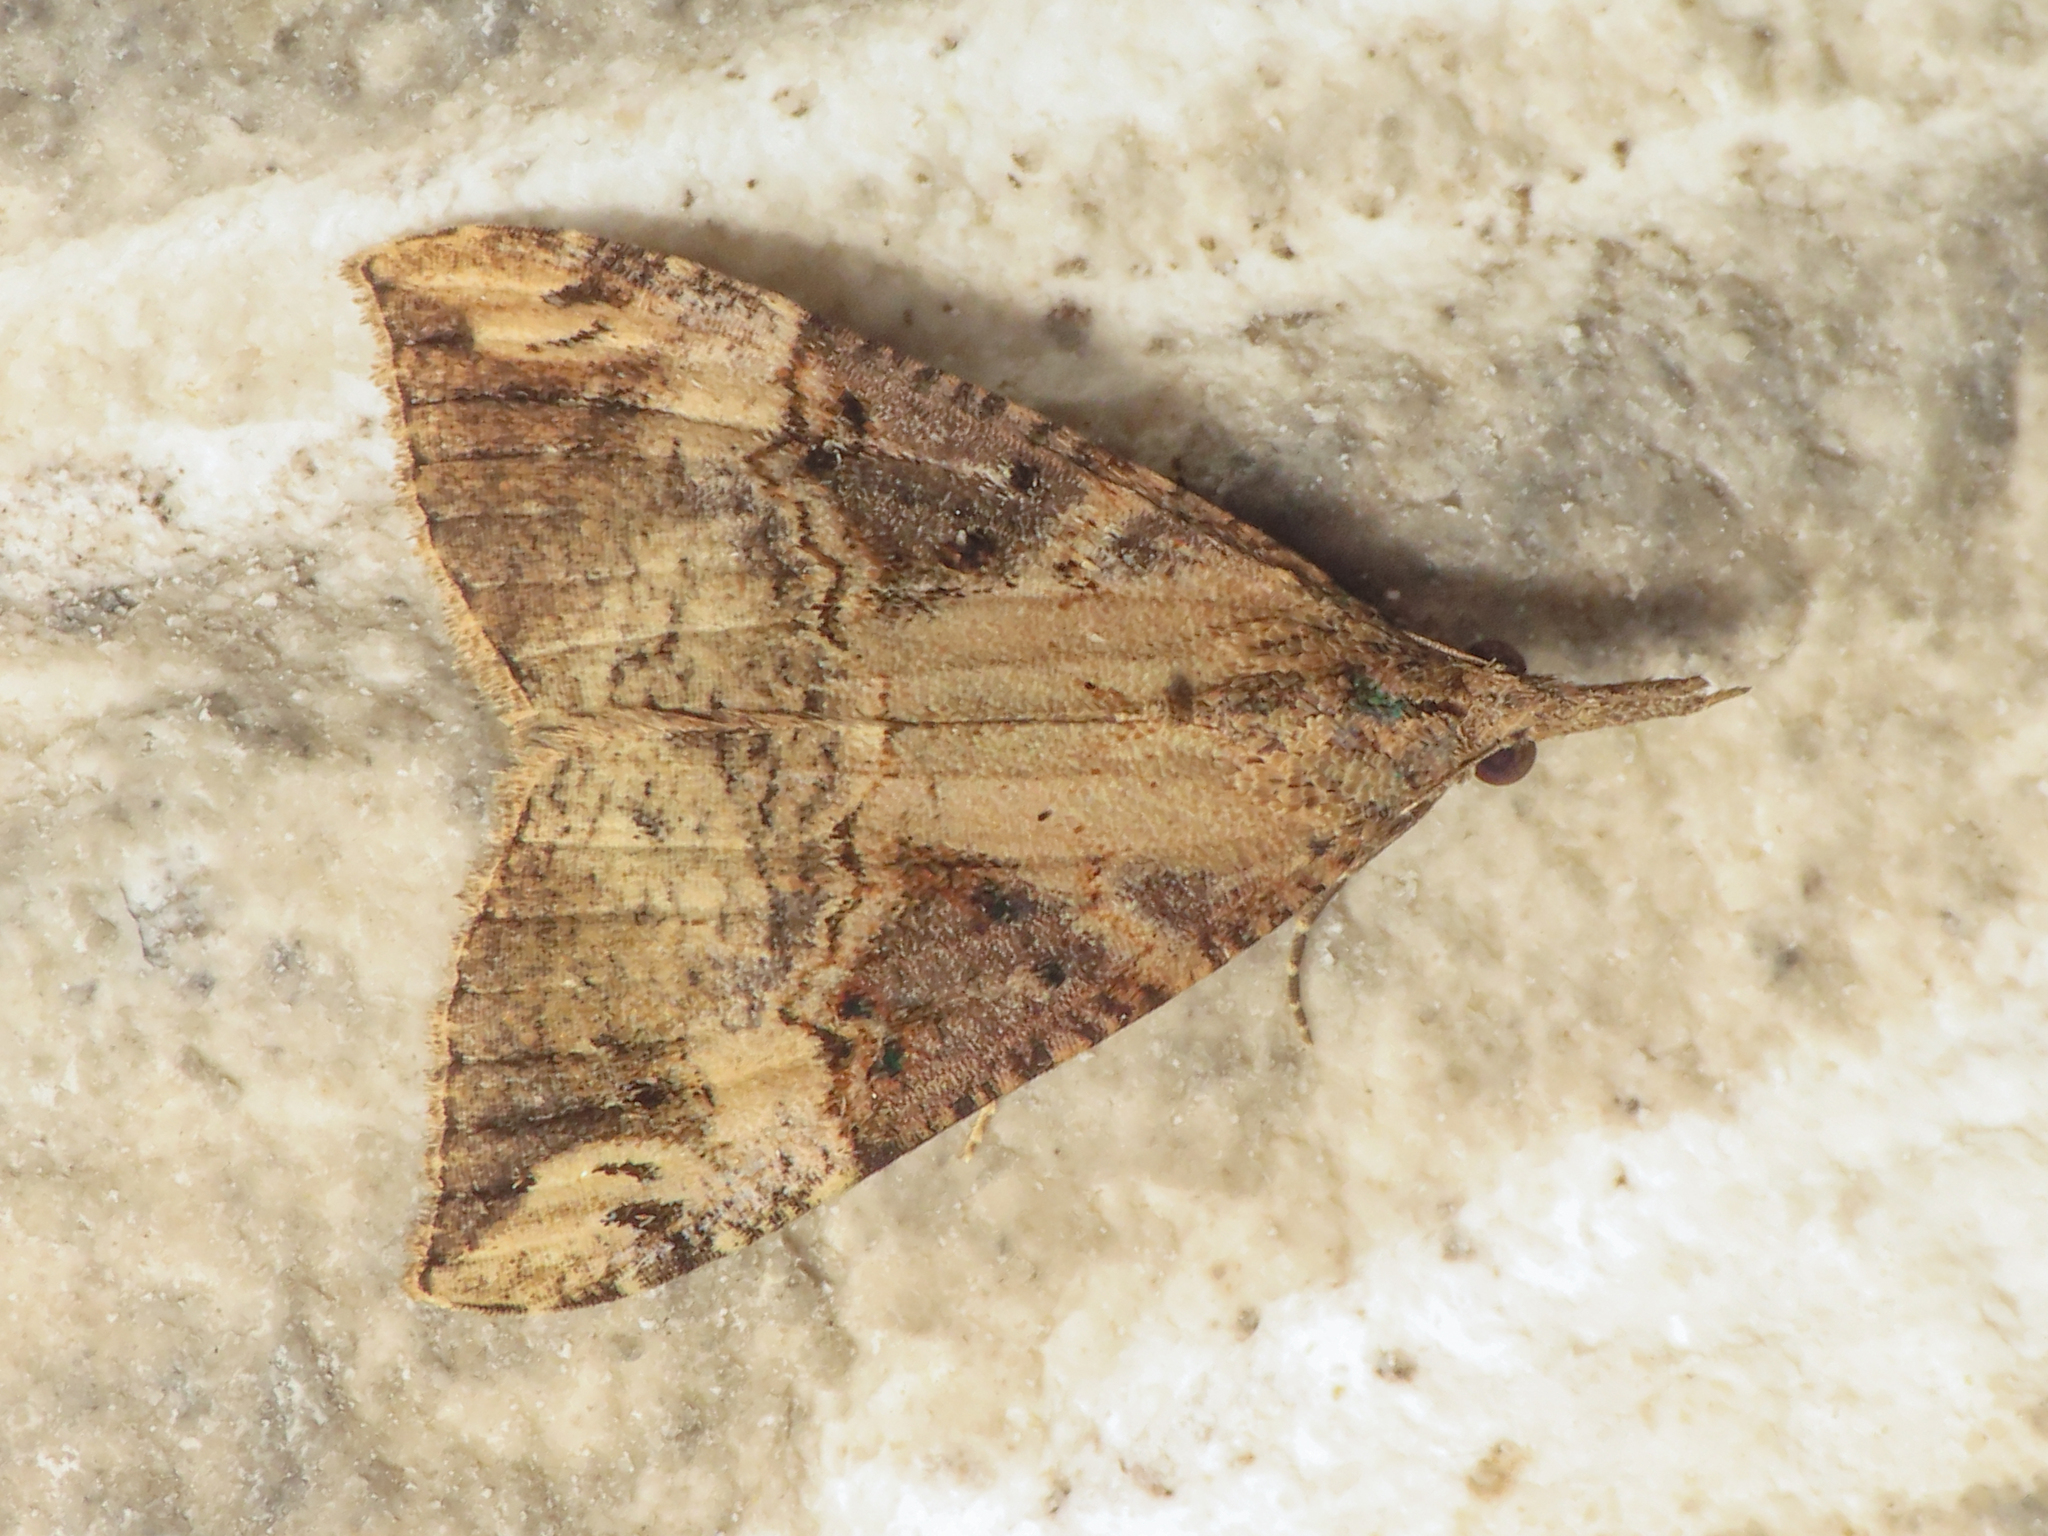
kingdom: Animalia
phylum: Arthropoda
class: Insecta
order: Lepidoptera
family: Erebidae
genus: Hypena
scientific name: Hypena obsitalis
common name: Bloxworth snout
